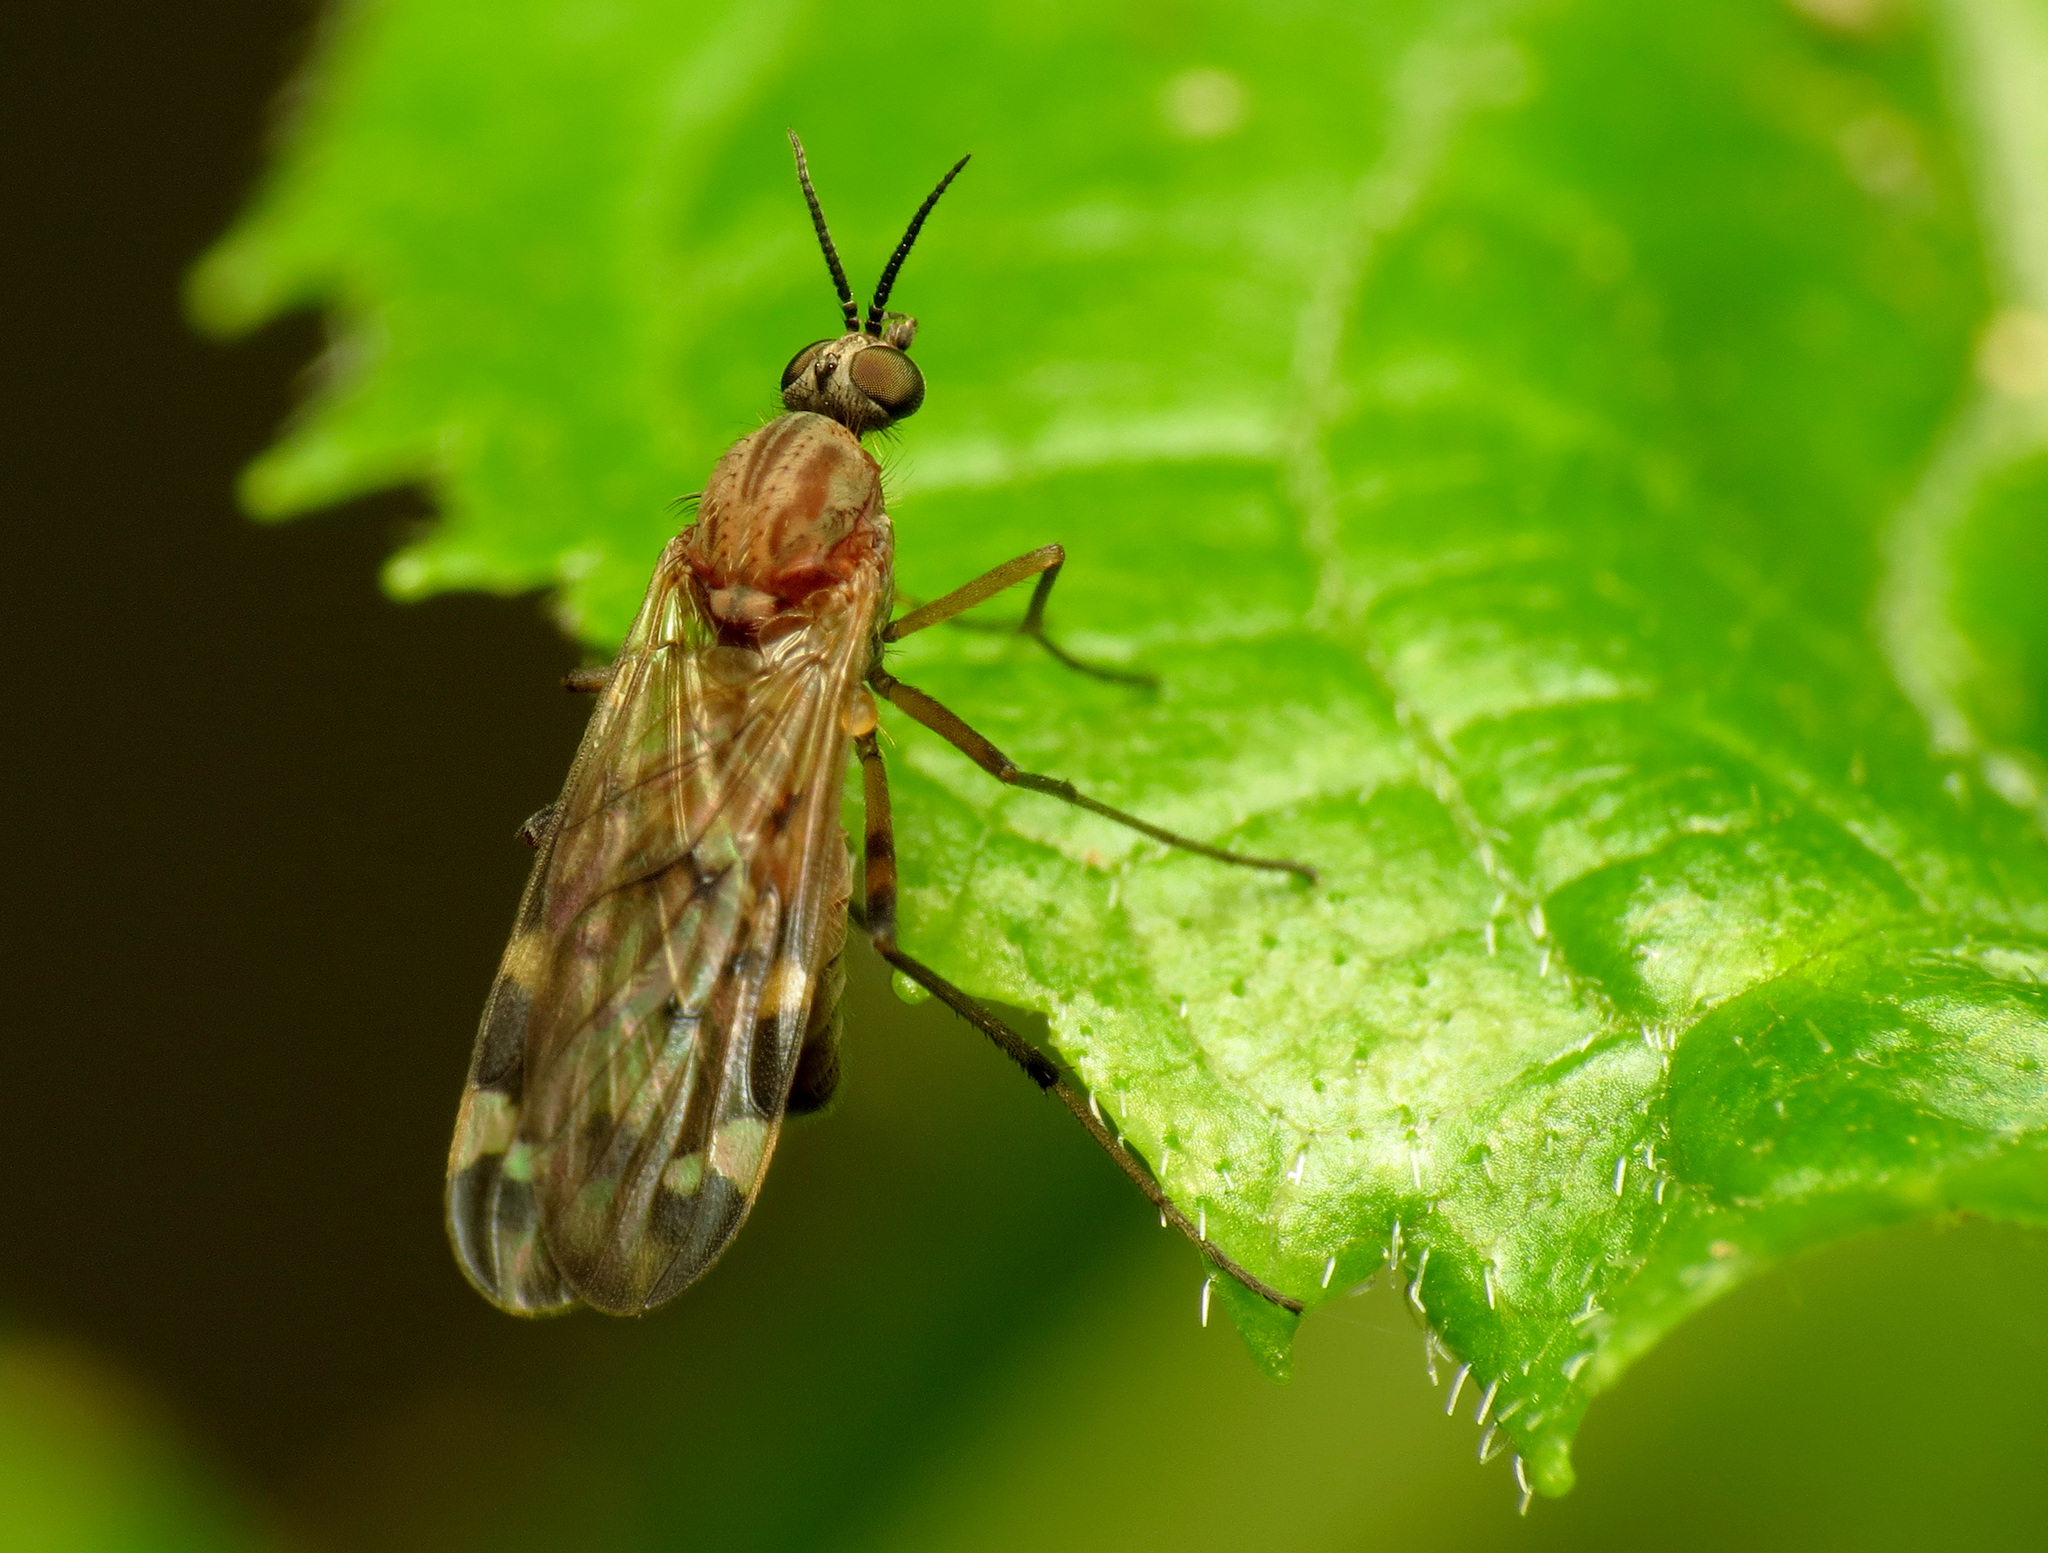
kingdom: Animalia
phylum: Arthropoda
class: Insecta
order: Diptera
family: Anisopodidae
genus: Sylvicola
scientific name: Sylvicola alternata
